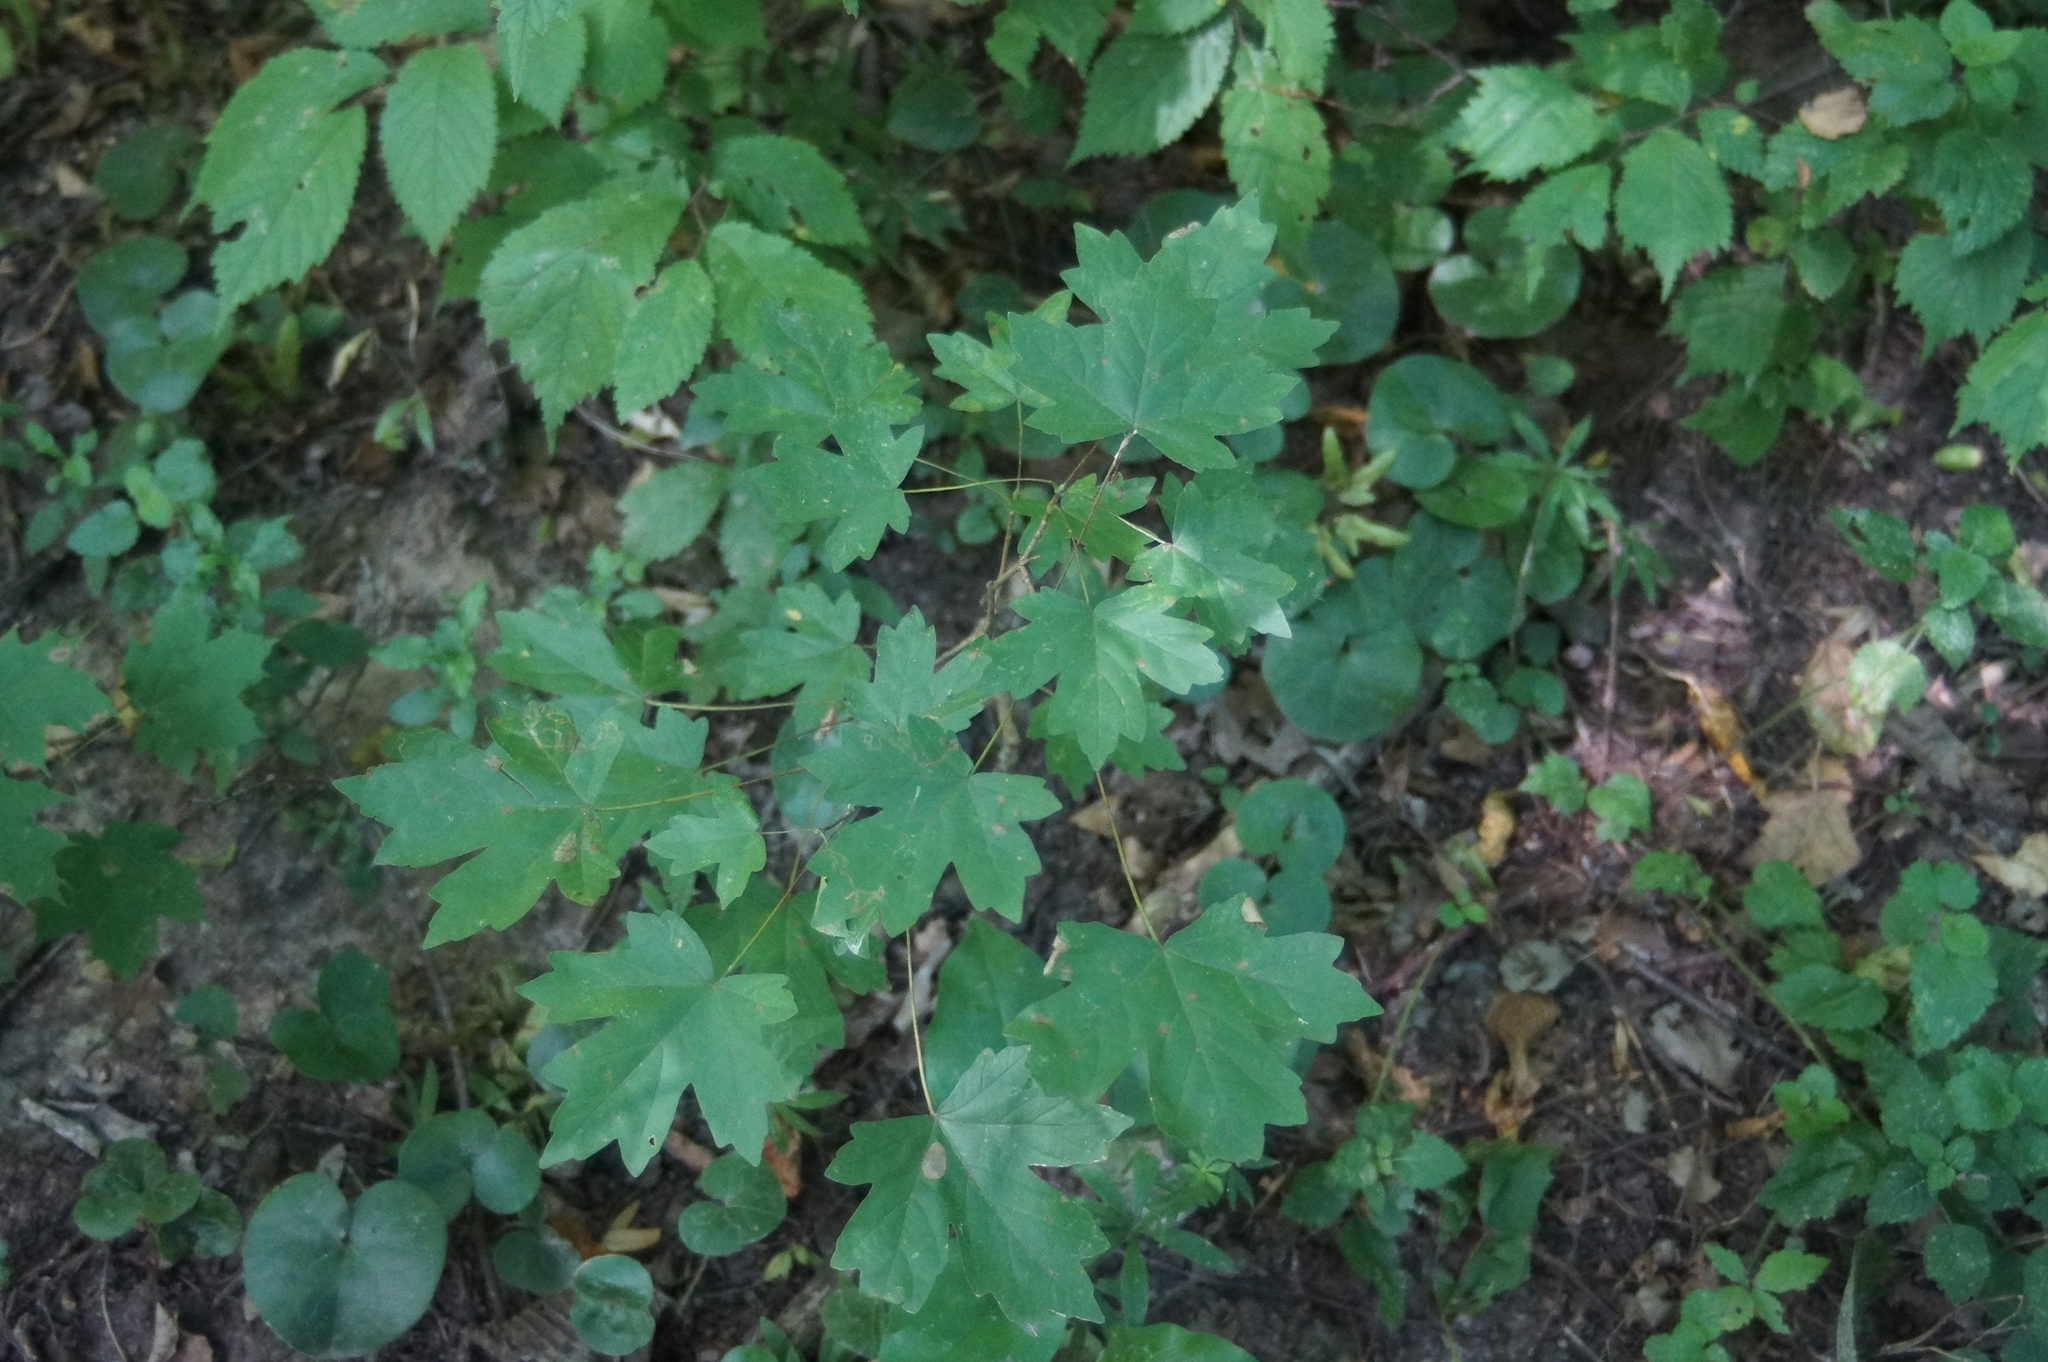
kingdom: Plantae
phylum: Tracheophyta
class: Magnoliopsida
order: Sapindales
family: Sapindaceae
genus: Acer
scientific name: Acer campestre
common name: Field maple
